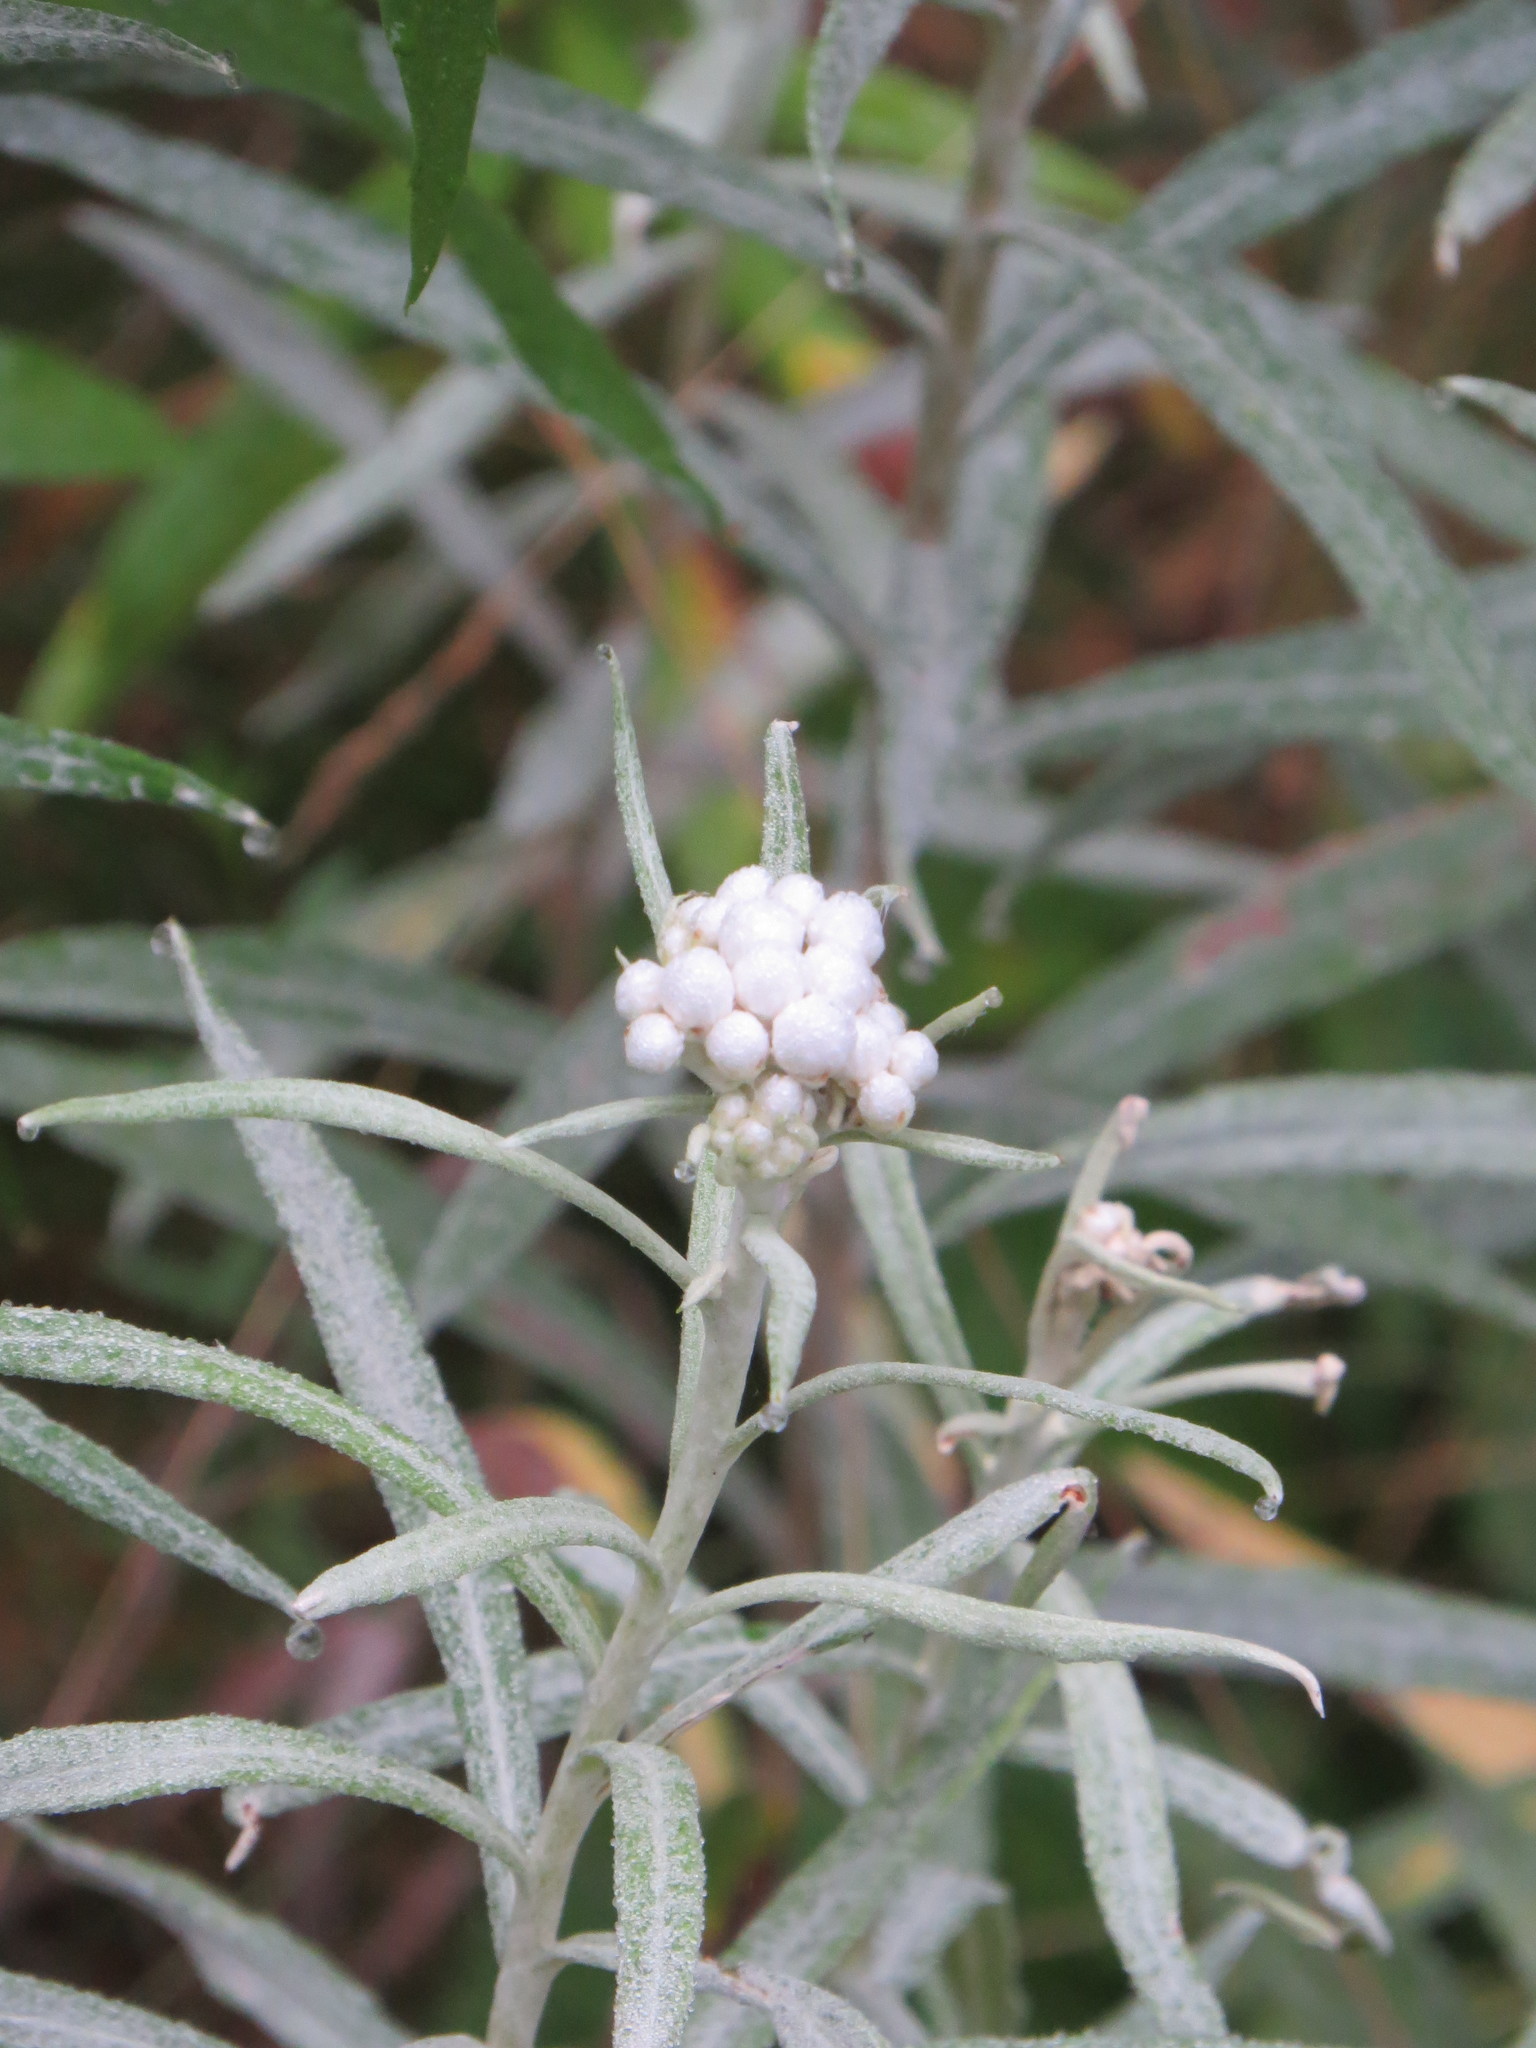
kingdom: Plantae
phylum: Tracheophyta
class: Magnoliopsida
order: Asterales
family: Asteraceae
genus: Anaphalis
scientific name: Anaphalis margaritacea
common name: Pearly everlasting
